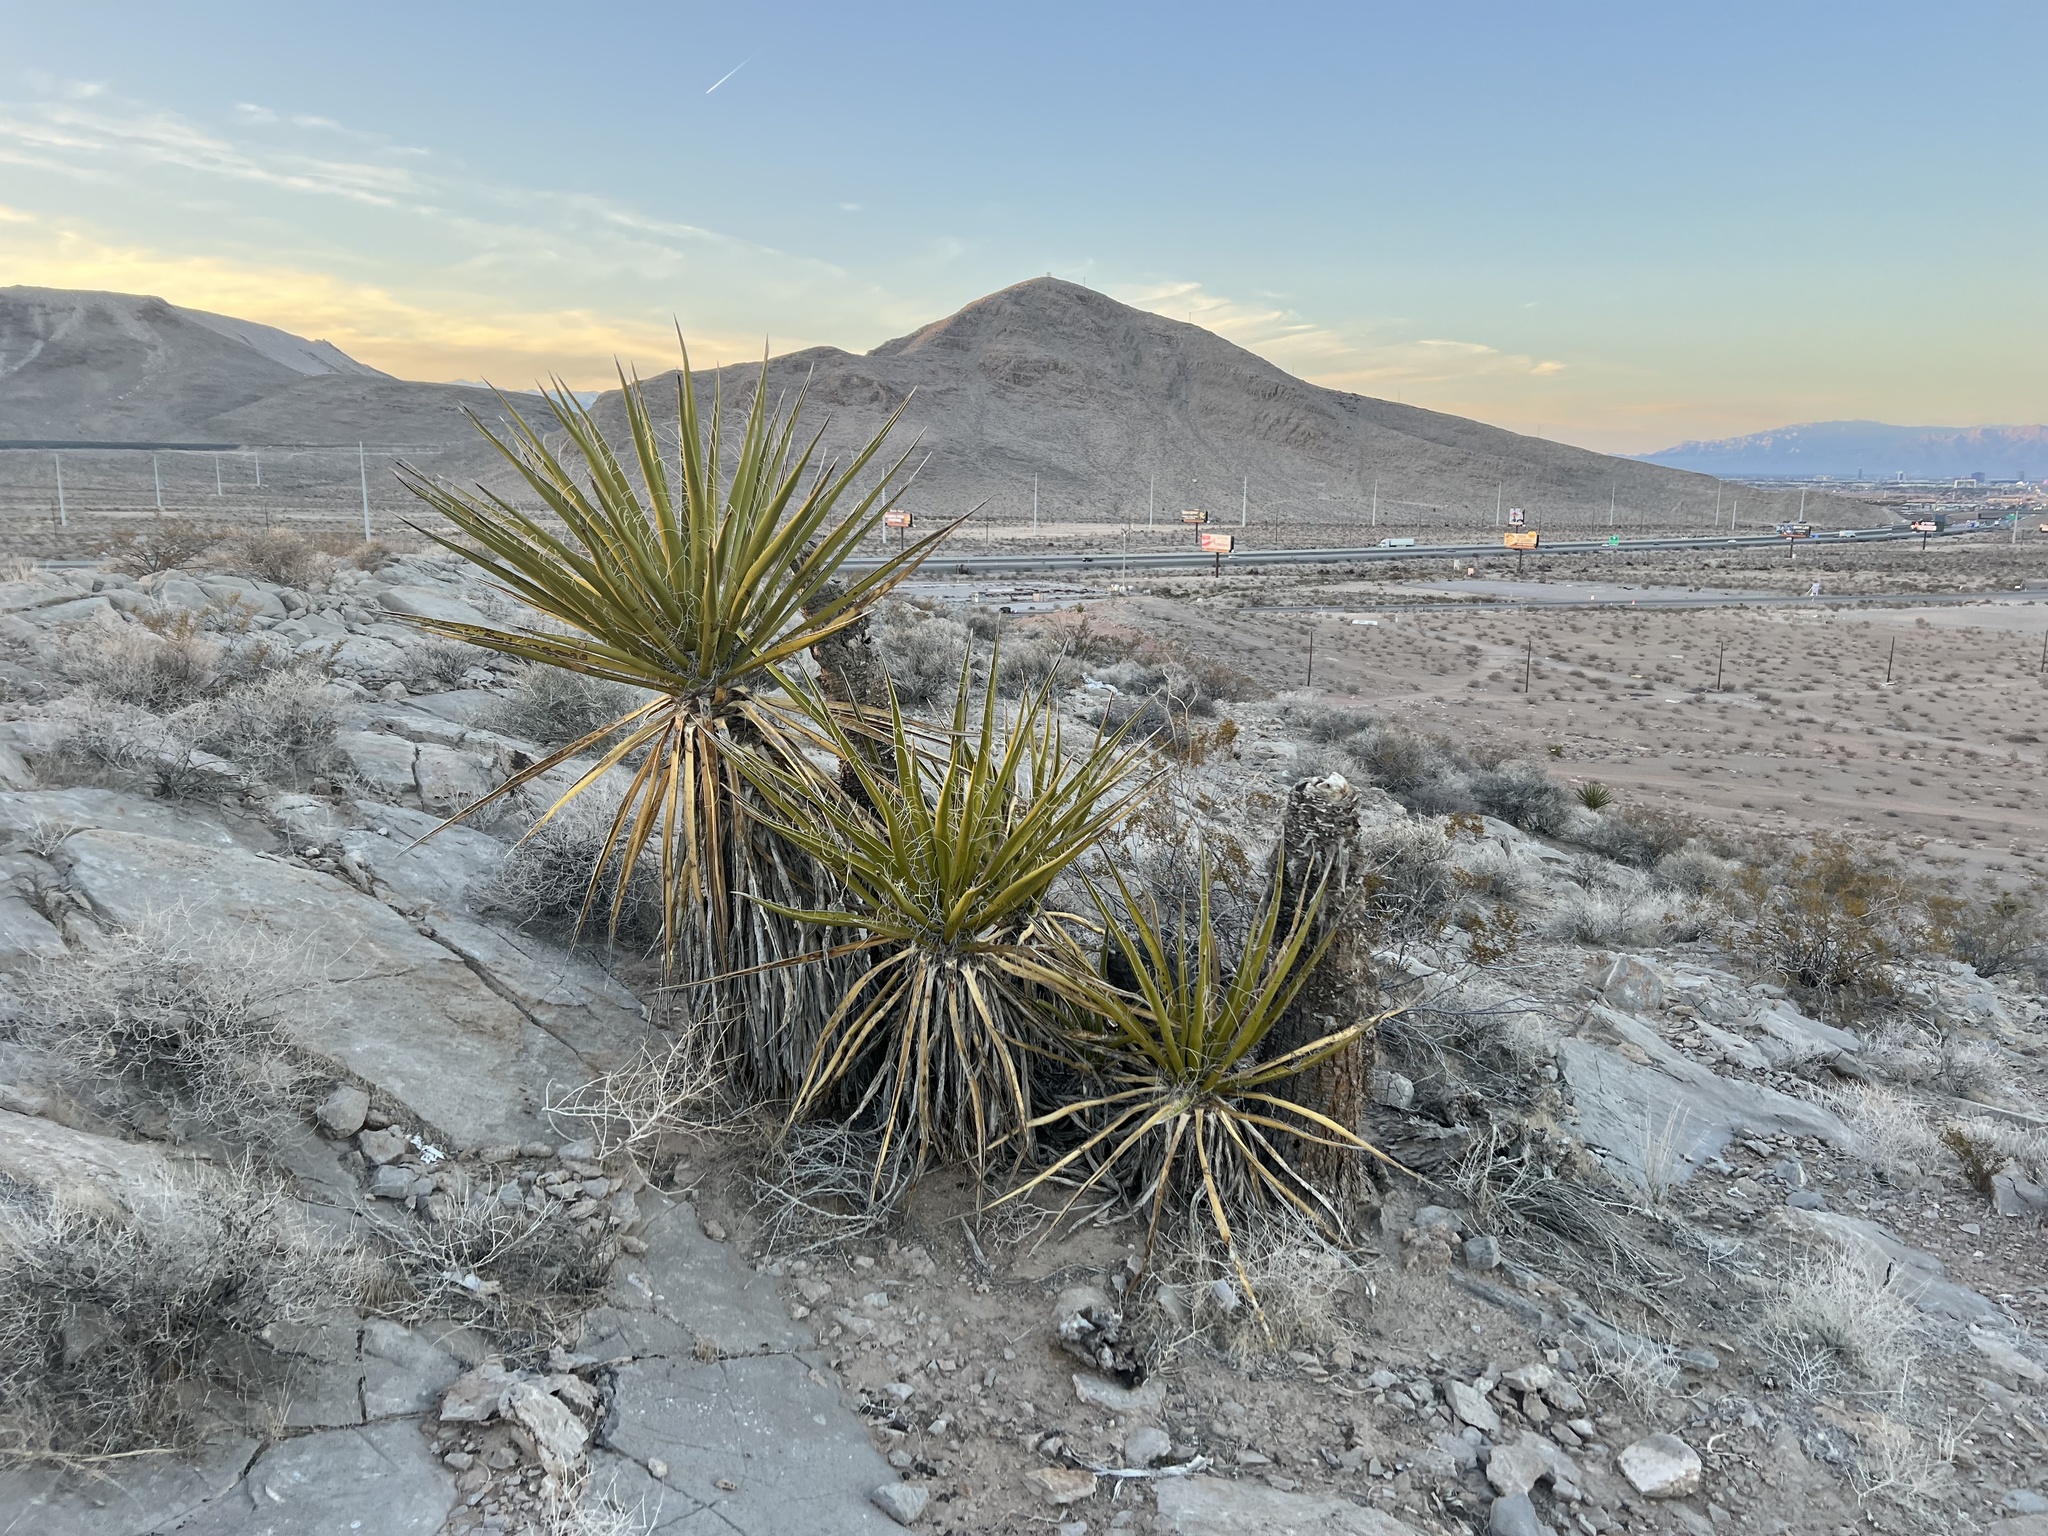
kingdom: Plantae
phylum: Tracheophyta
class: Liliopsida
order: Asparagales
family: Asparagaceae
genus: Yucca
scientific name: Yucca schidigera
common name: Mojave yucca
